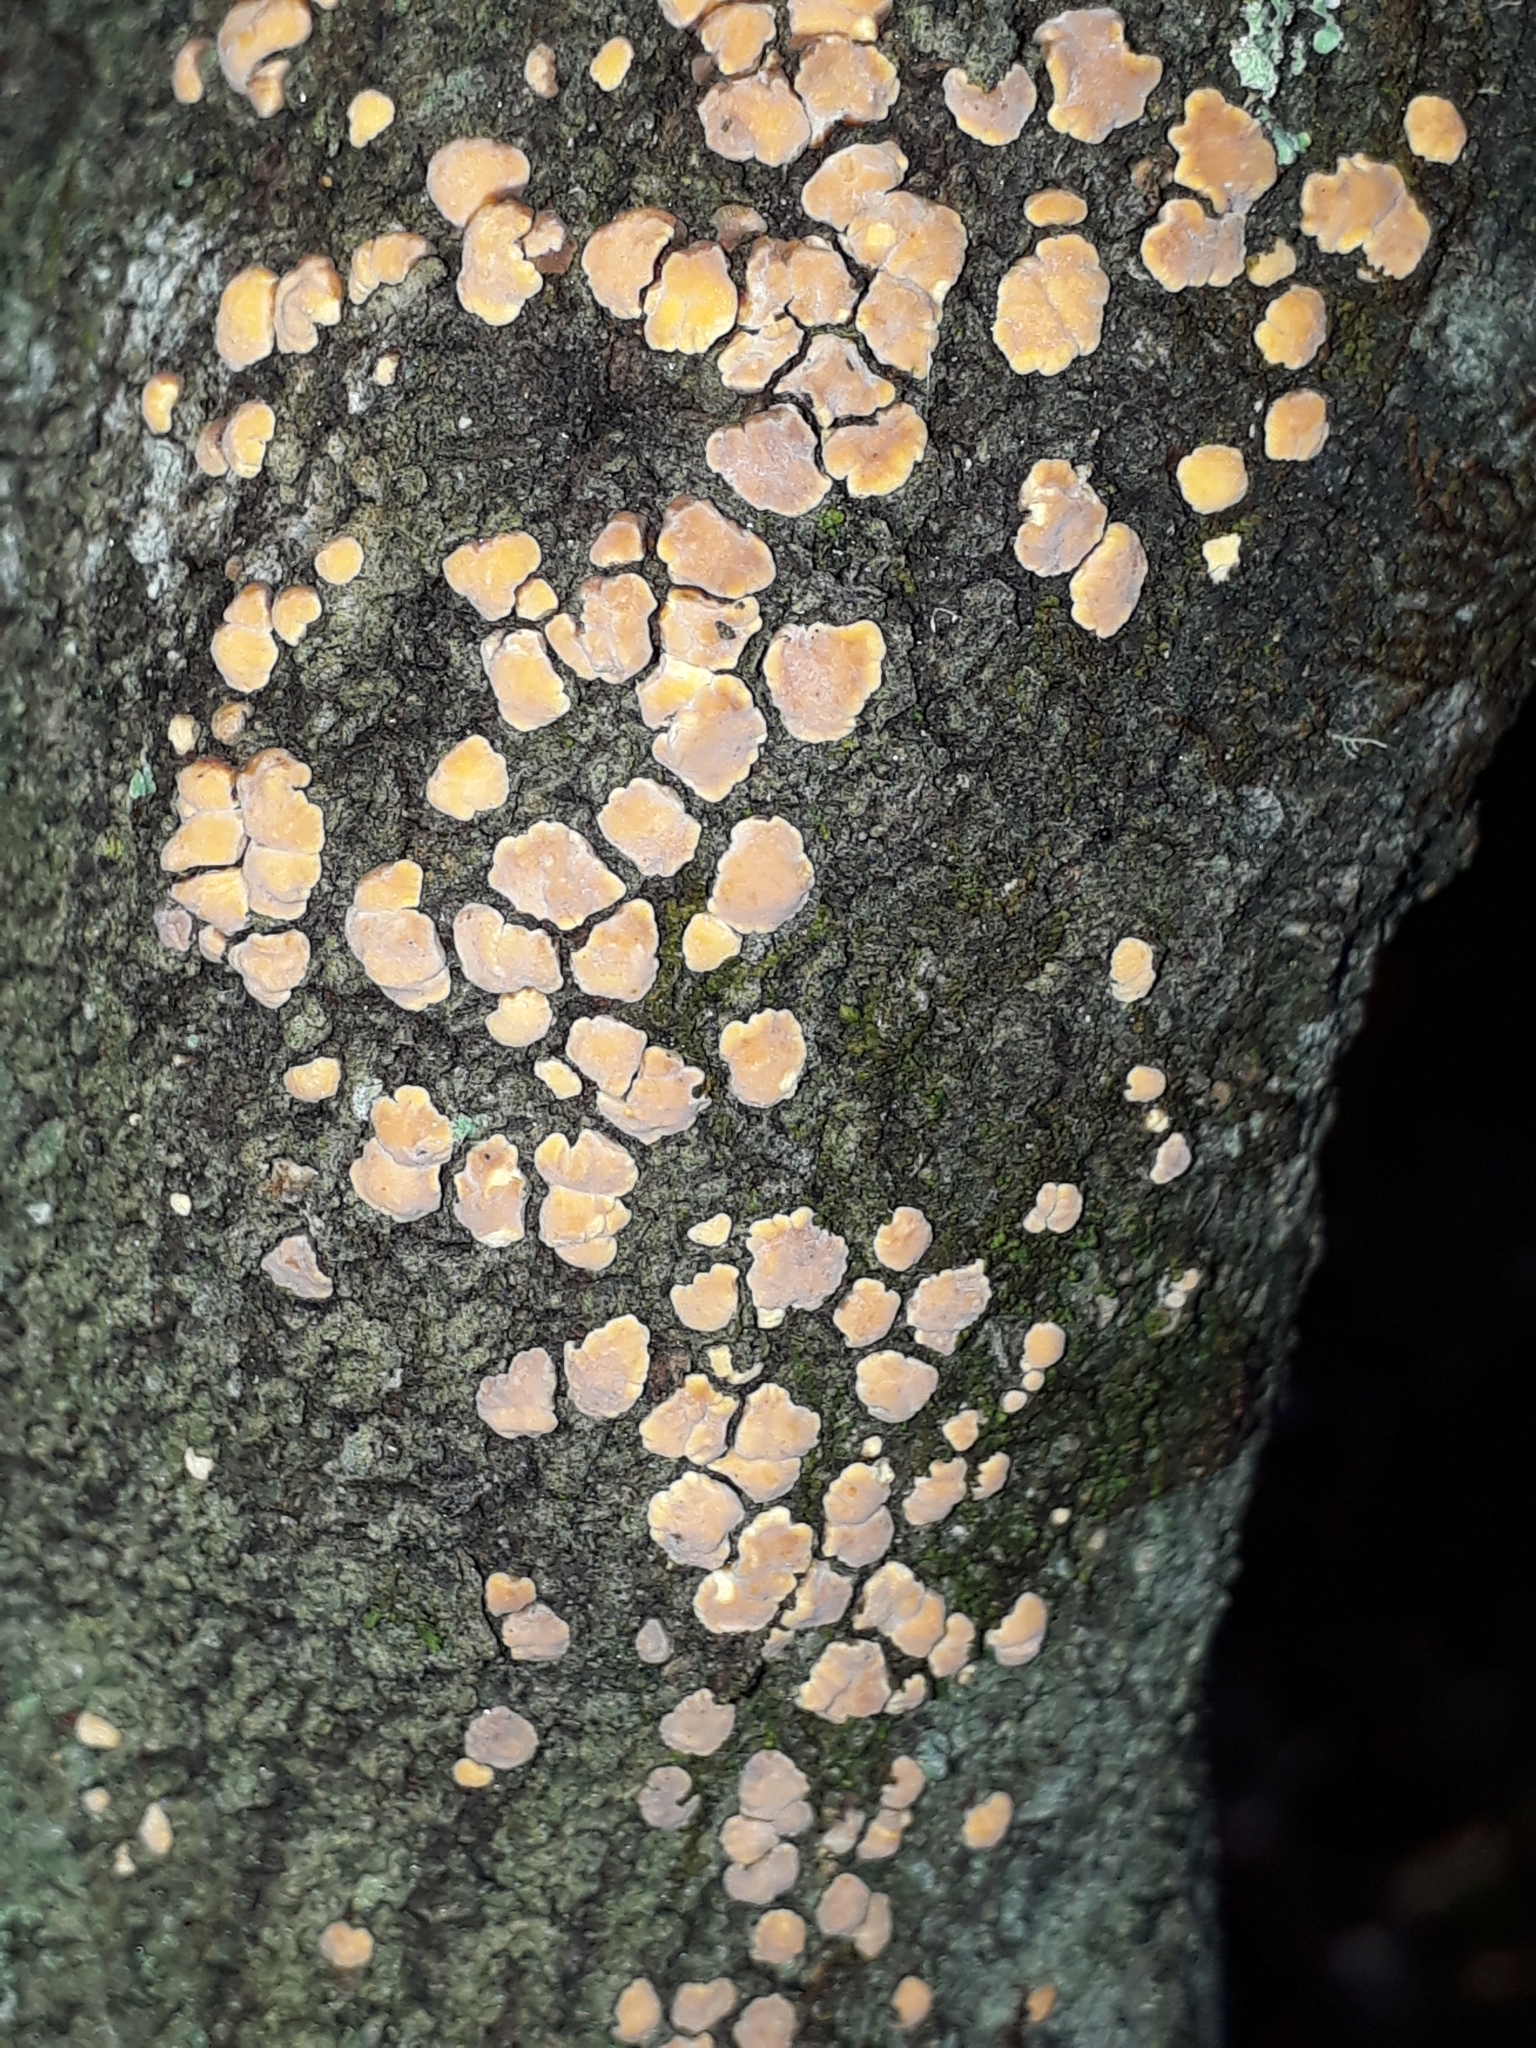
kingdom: Fungi
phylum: Basidiomycota
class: Agaricomycetes
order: Russulales
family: Stereaceae
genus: Aleurodiscus
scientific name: Aleurodiscus berggrenii
